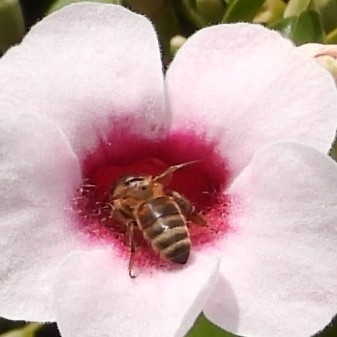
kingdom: Animalia
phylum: Arthropoda
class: Insecta
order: Hymenoptera
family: Apidae
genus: Apis
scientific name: Apis mellifera
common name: Honey bee
